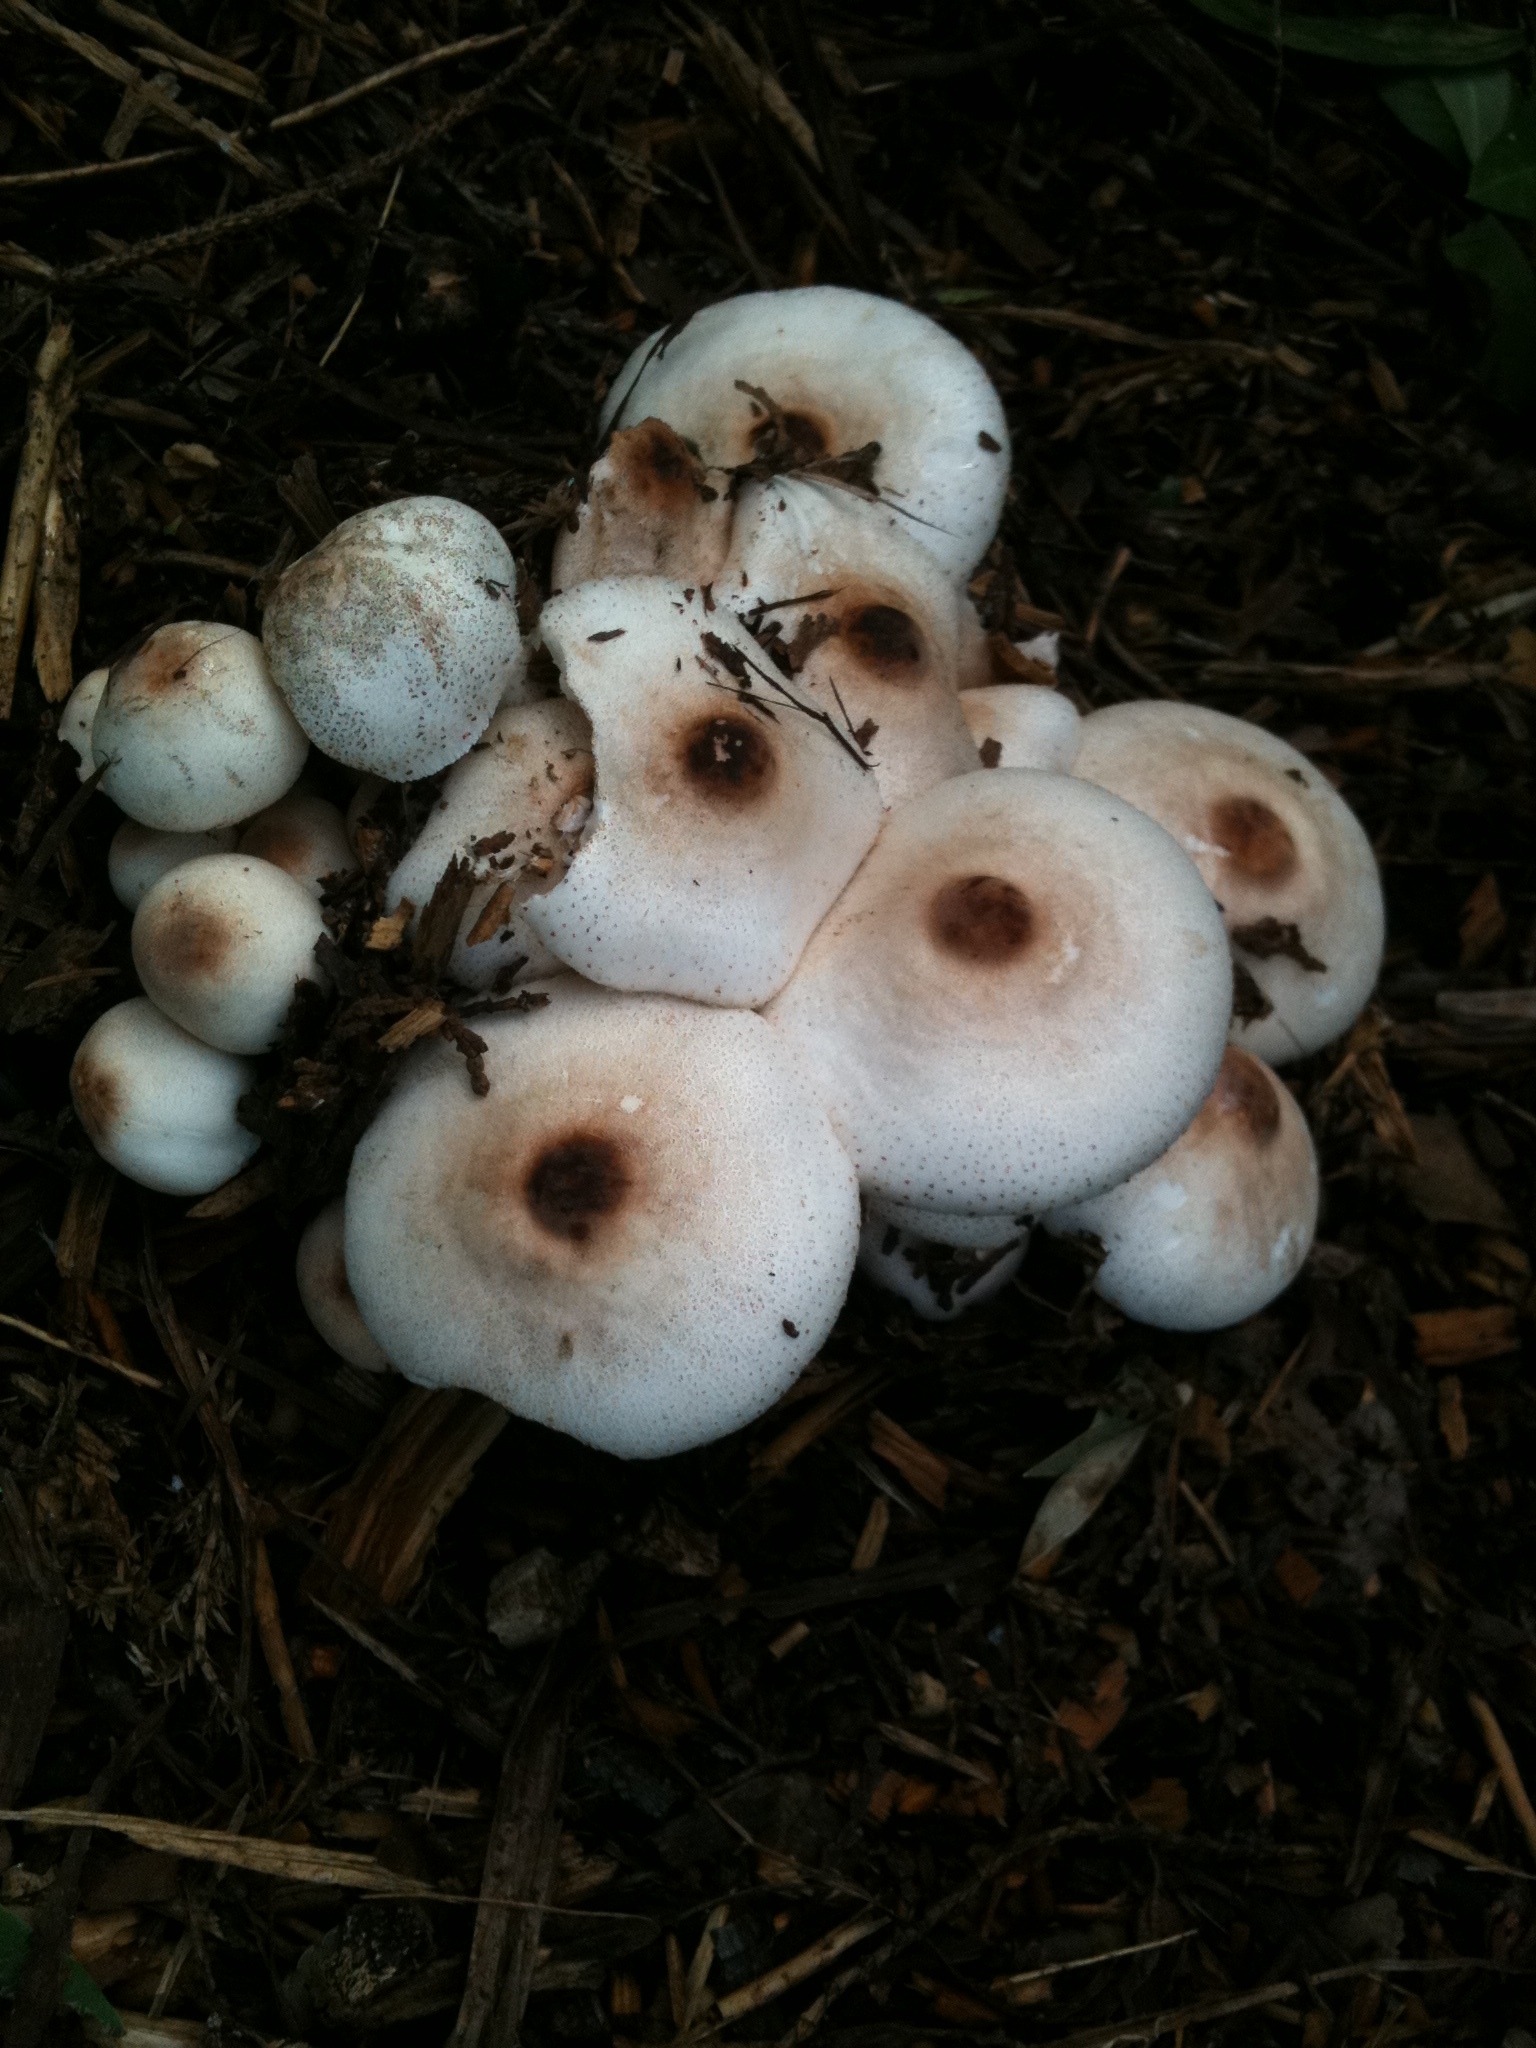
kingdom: Fungi
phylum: Basidiomycota
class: Agaricomycetes
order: Agaricales
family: Agaricaceae
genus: Leucoagaricus
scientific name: Leucoagaricus americanus
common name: Reddening lepiota
